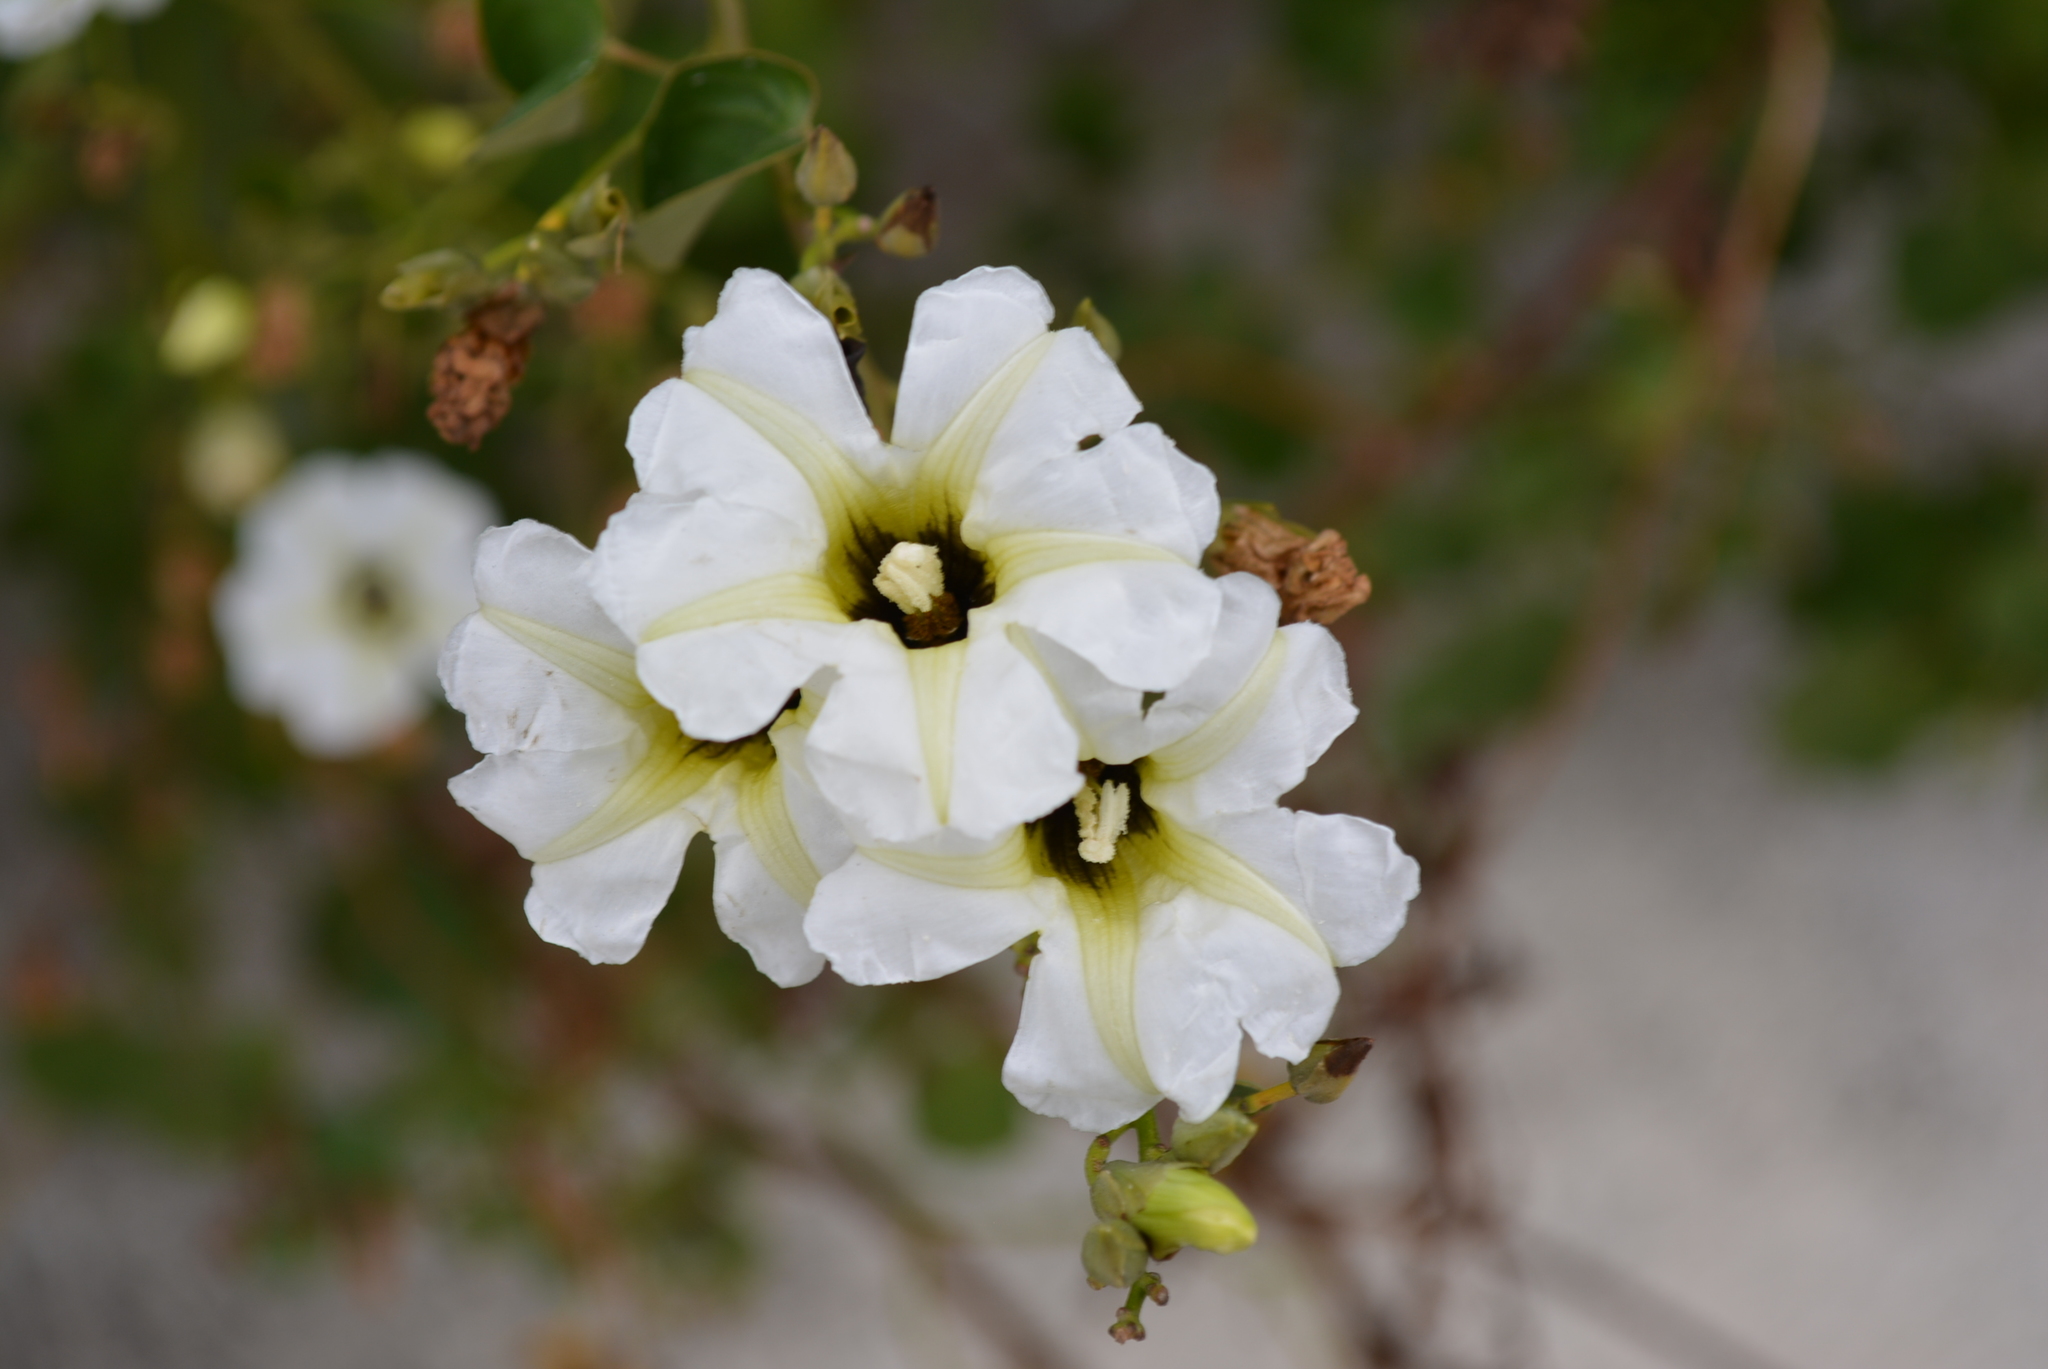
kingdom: Plantae
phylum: Tracheophyta
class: Magnoliopsida
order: Solanales
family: Convolvulaceae
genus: Ipomoea
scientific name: Ipomoea corymbosa
